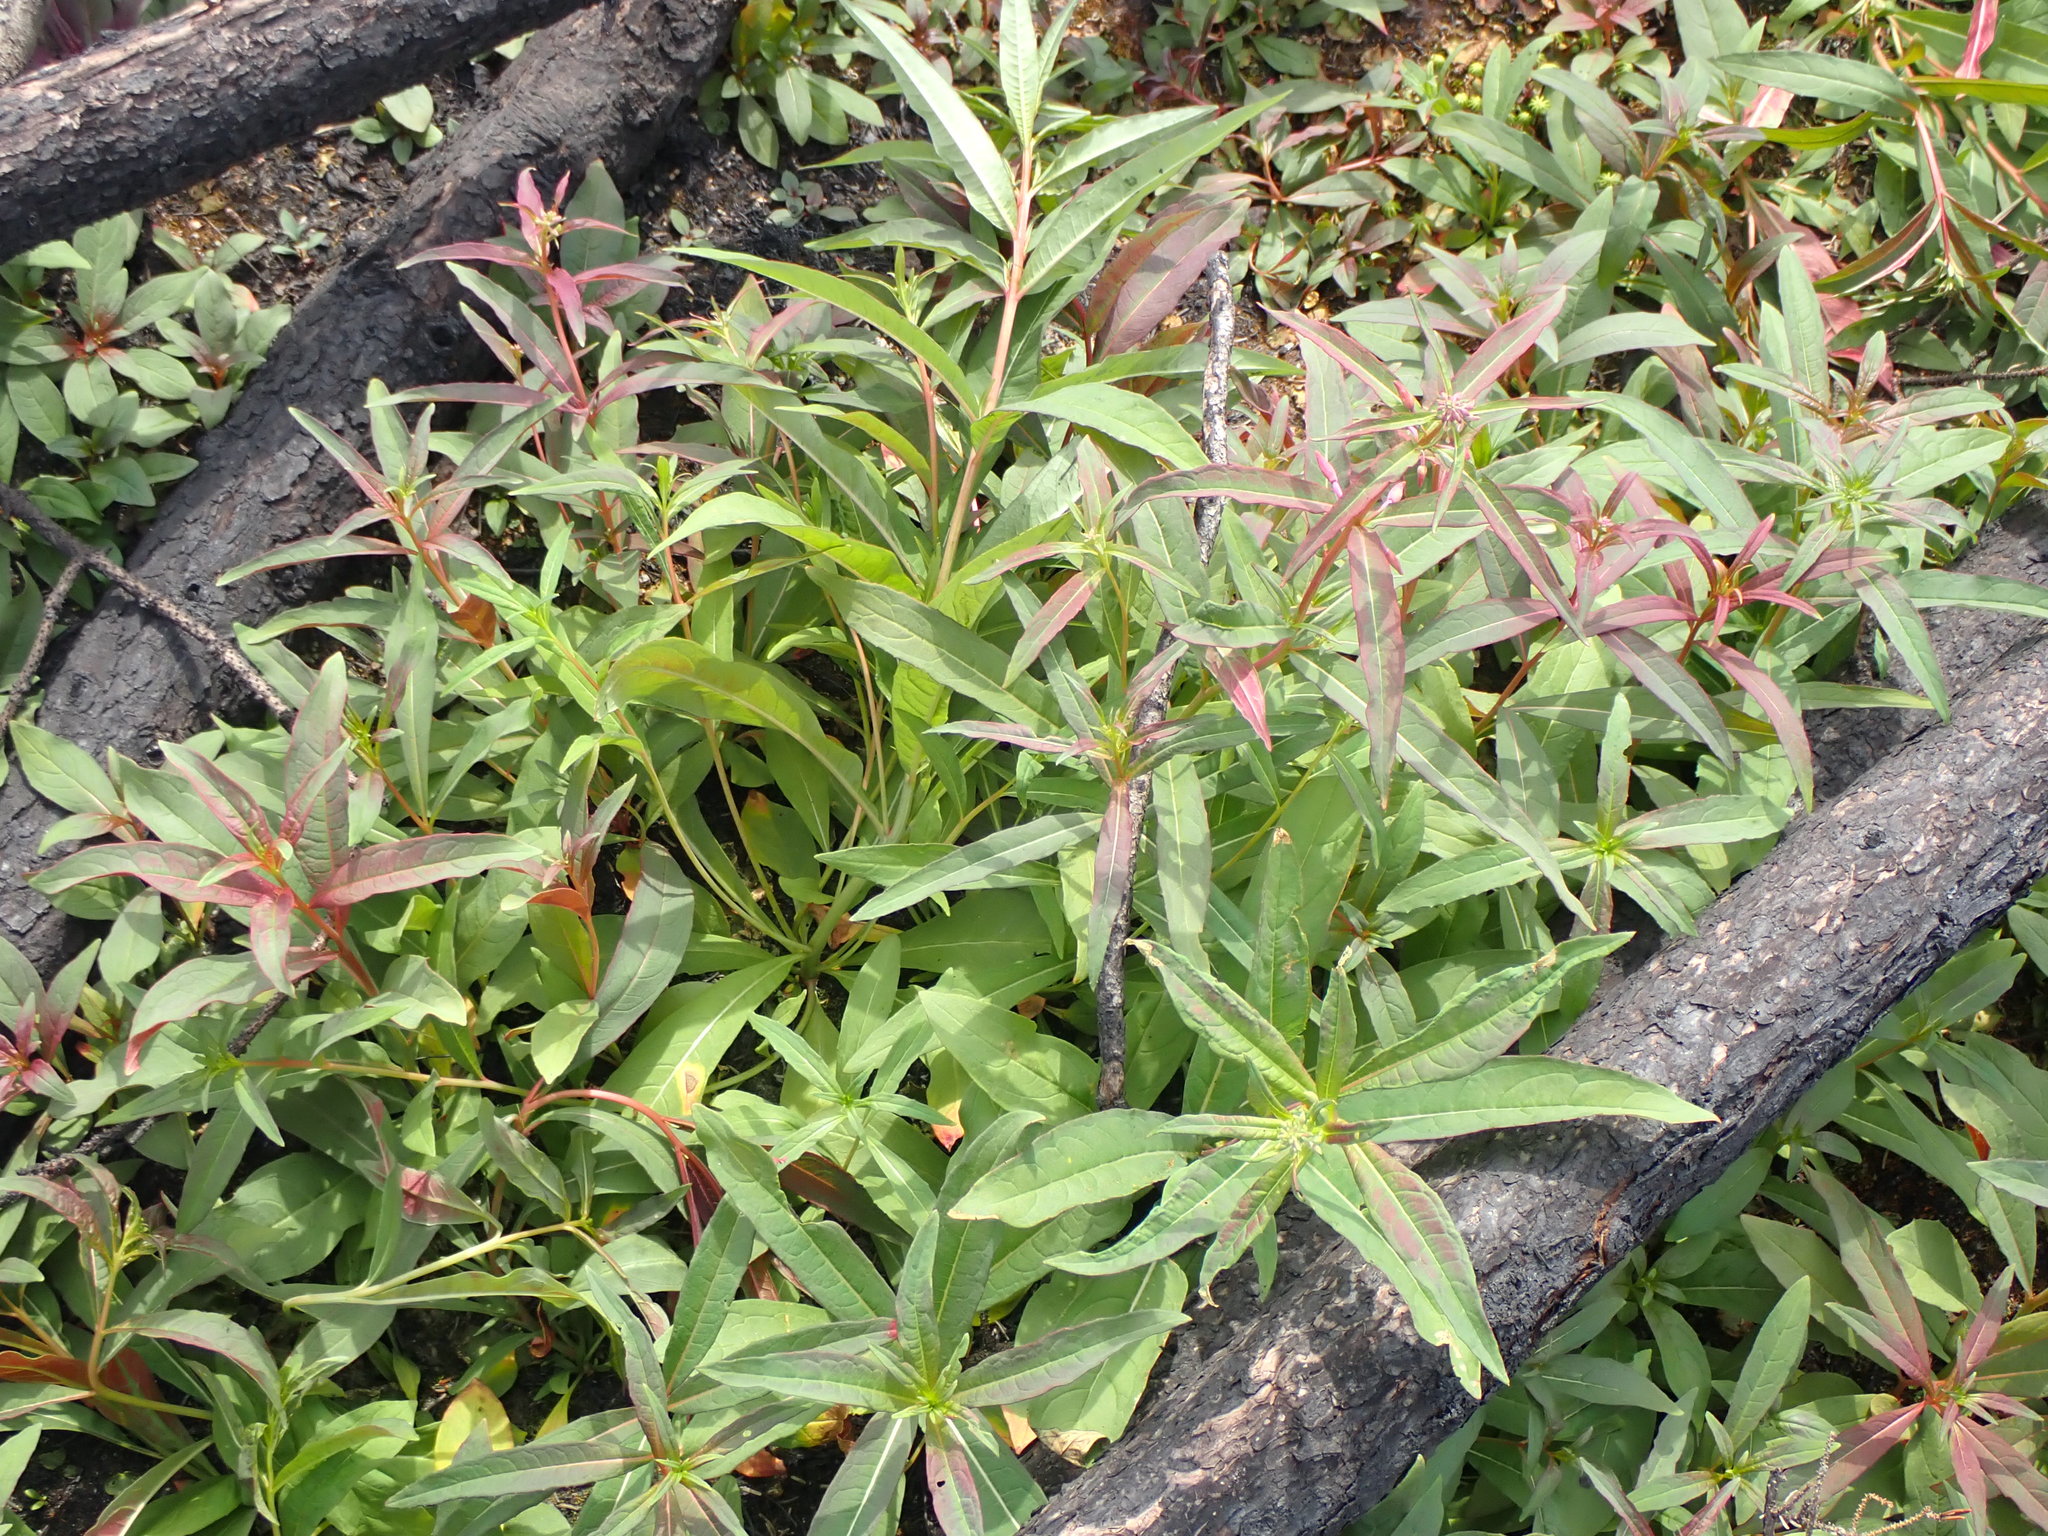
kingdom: Plantae
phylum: Tracheophyta
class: Magnoliopsida
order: Myrtales
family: Onagraceae
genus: Chamaenerion
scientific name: Chamaenerion angustifolium
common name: Fireweed
